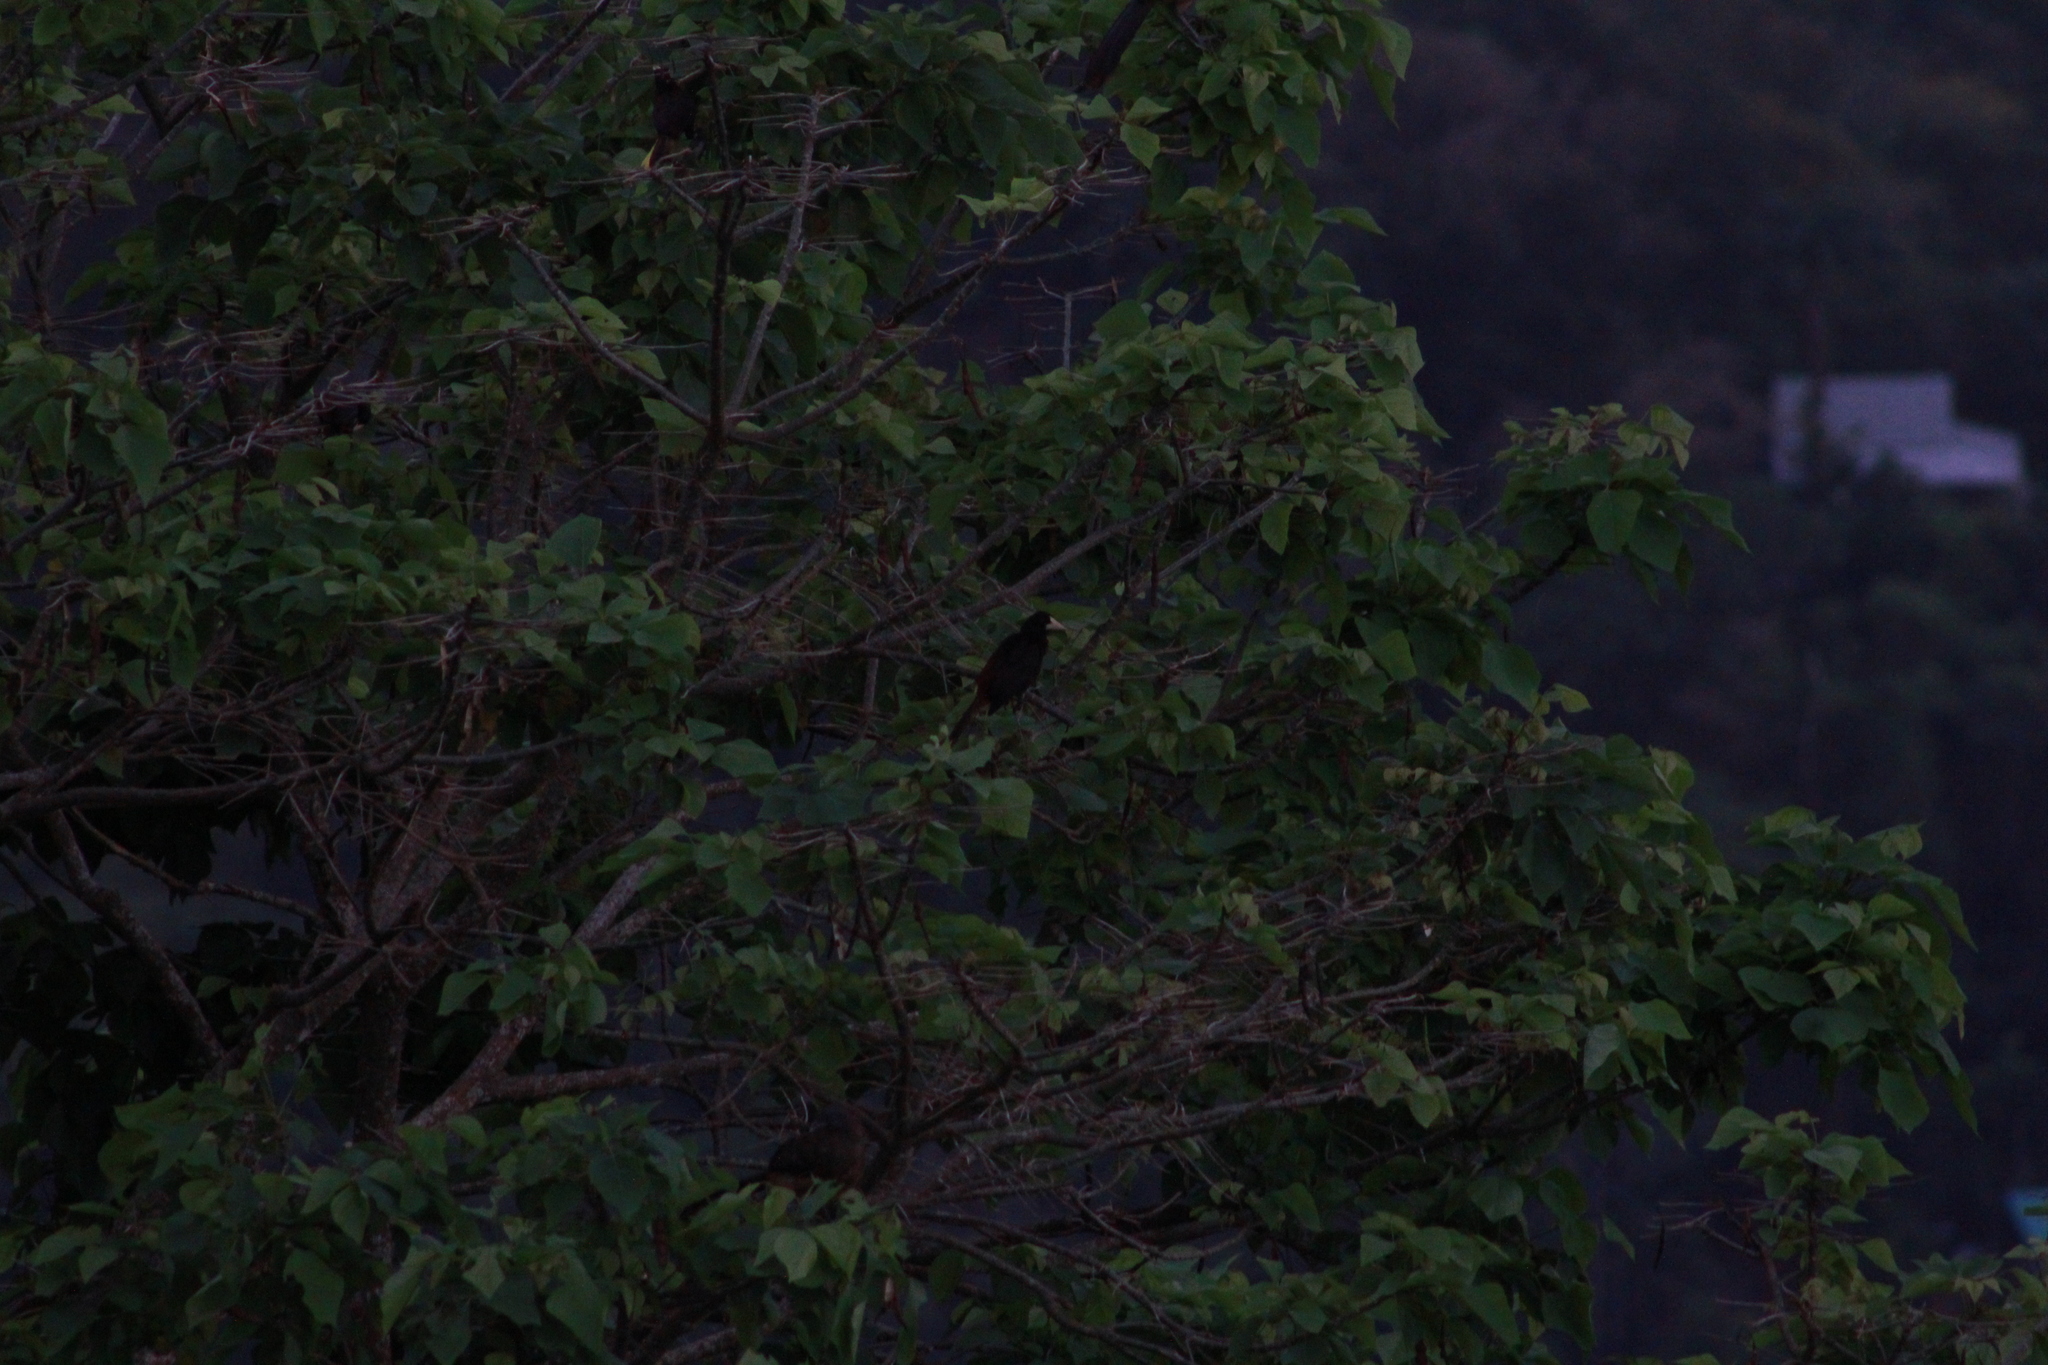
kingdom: Animalia
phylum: Chordata
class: Aves
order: Passeriformes
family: Icteridae
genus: Psarocolius
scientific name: Psarocolius decumanus
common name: Crested oropendola
